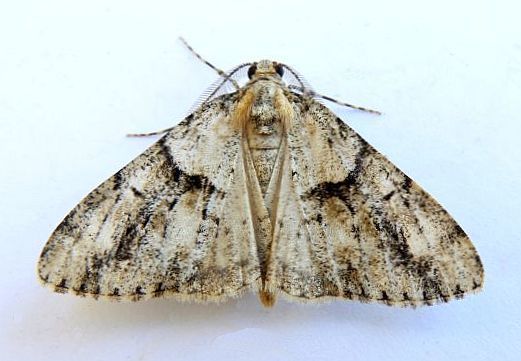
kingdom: Animalia
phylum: Arthropoda
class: Insecta
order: Lepidoptera
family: Geometridae
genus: Vinemina
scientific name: Vinemina opacaria
